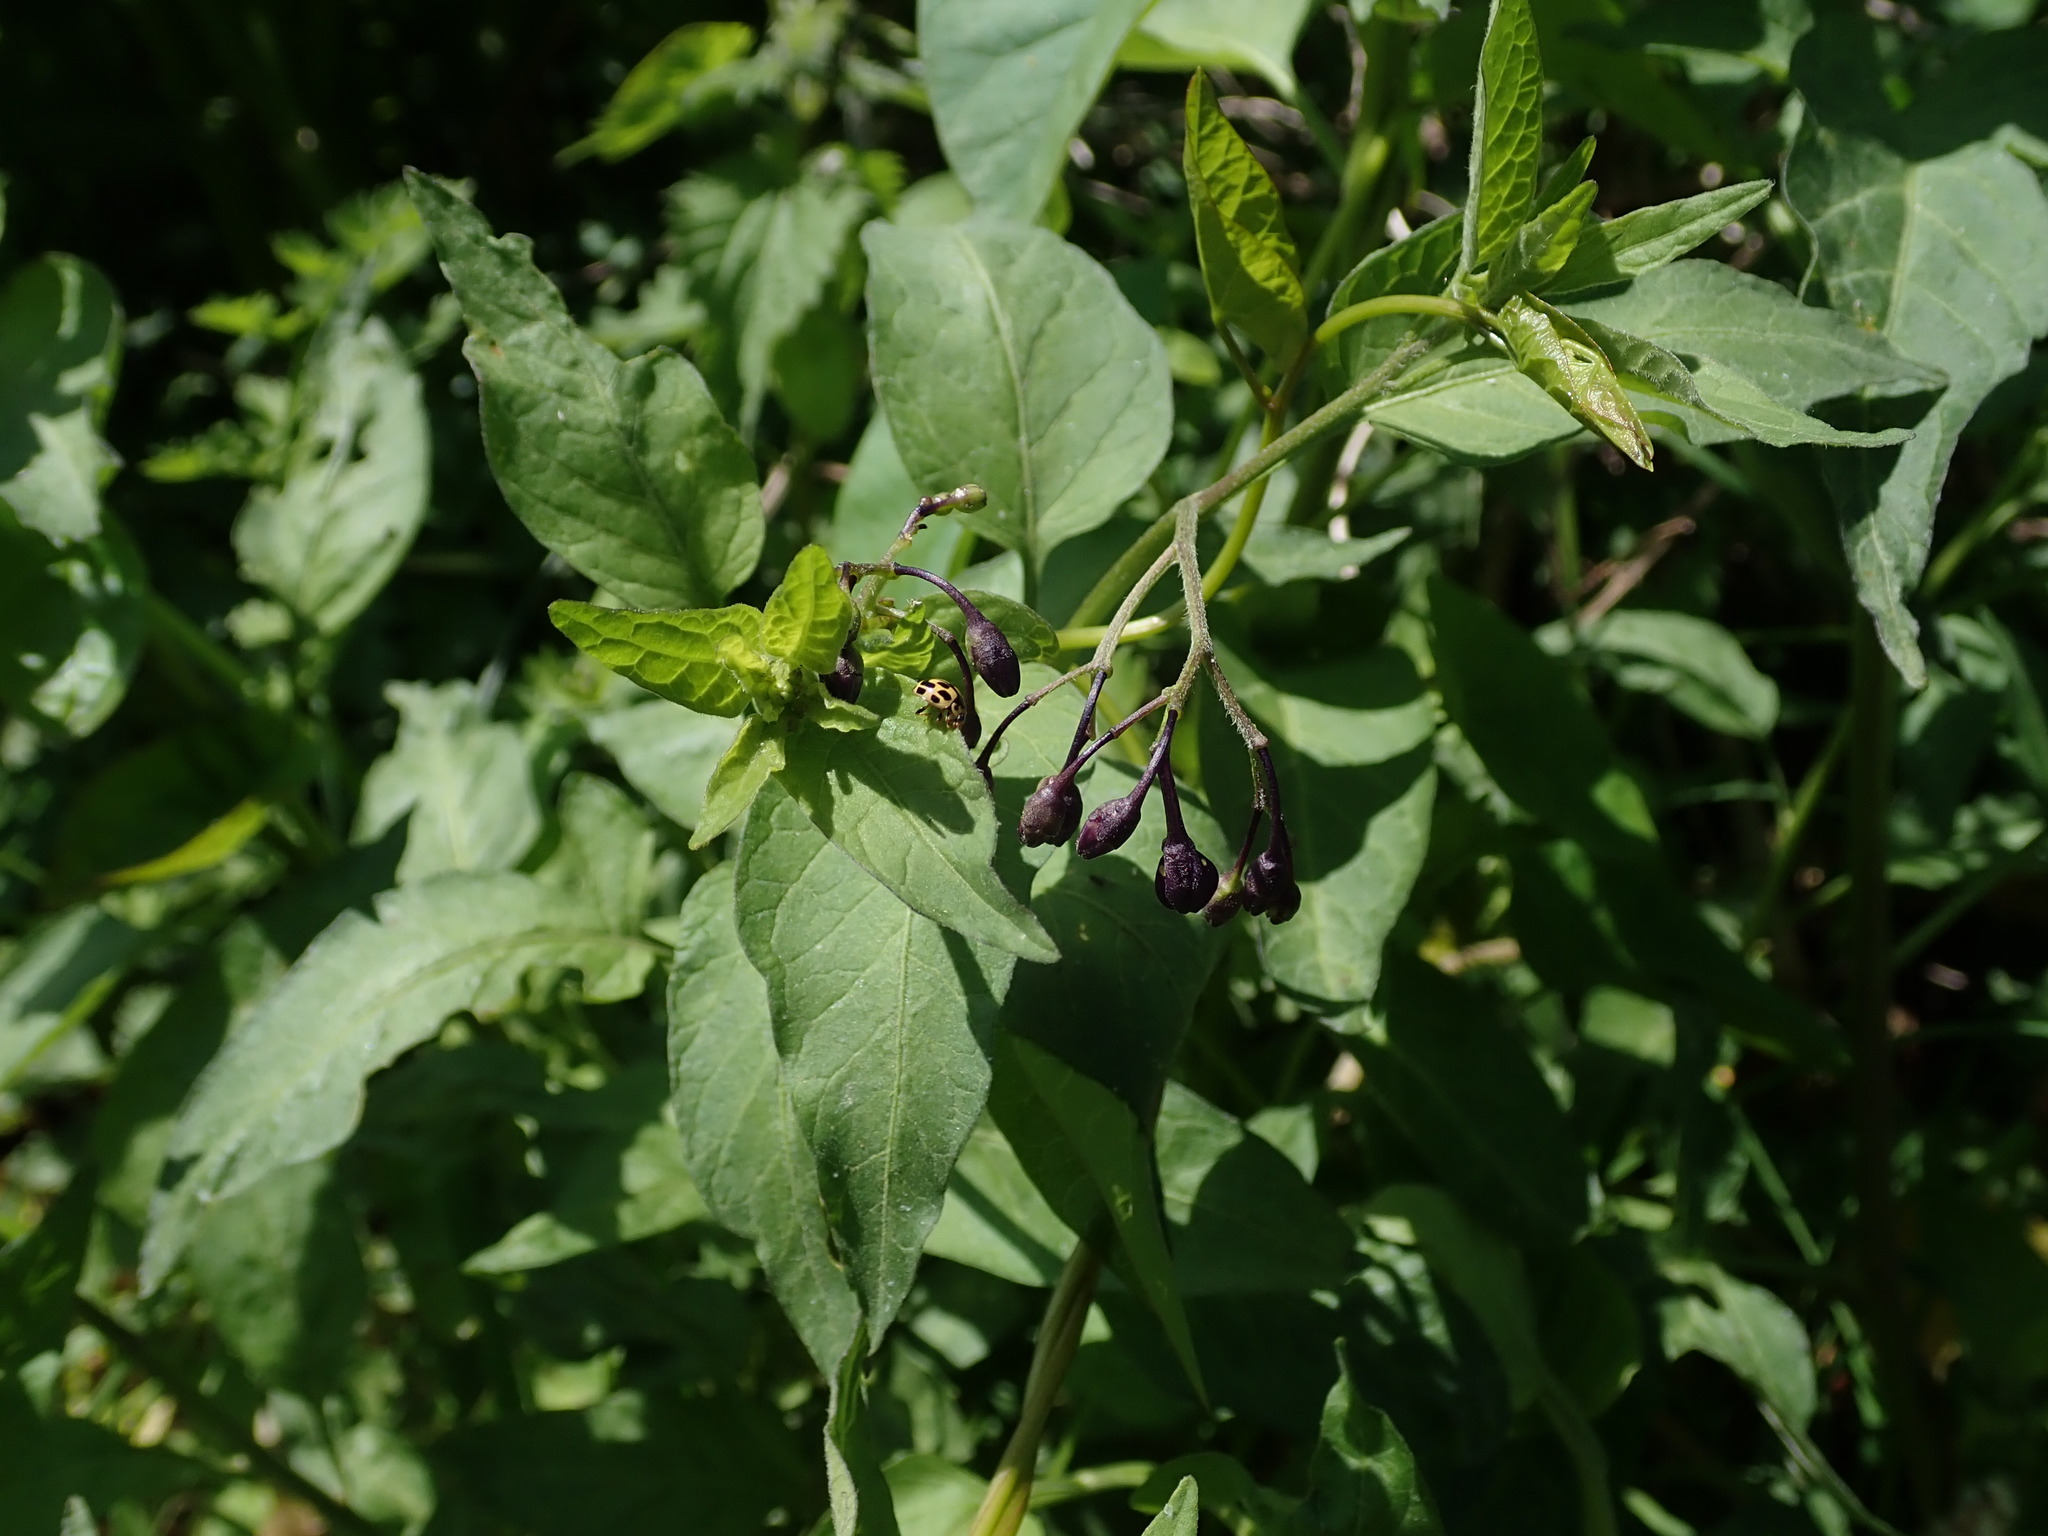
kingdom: Plantae
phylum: Tracheophyta
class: Magnoliopsida
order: Solanales
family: Solanaceae
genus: Solanum
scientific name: Solanum dulcamara
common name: Climbing nightshade
